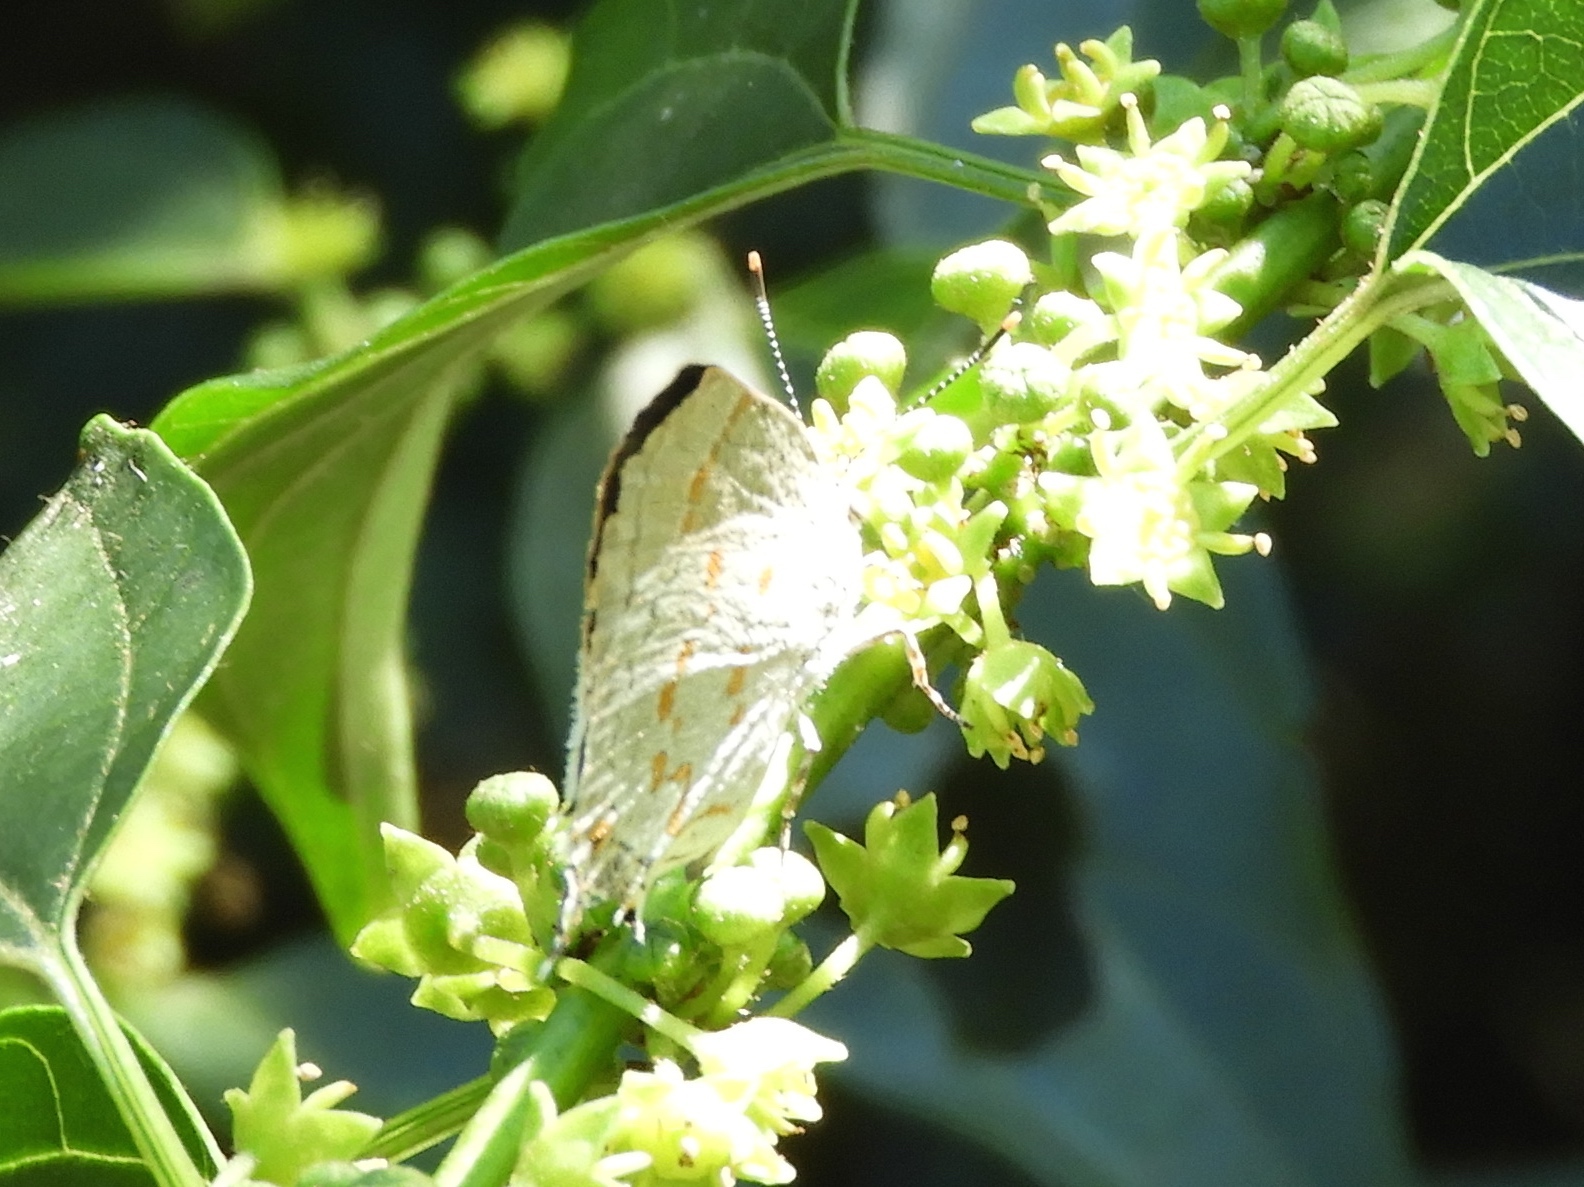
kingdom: Animalia
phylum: Arthropoda
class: Insecta
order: Lepidoptera
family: Lycaenidae
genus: Tmolus
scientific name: Tmolus echion
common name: Red-spotted hairstreak
